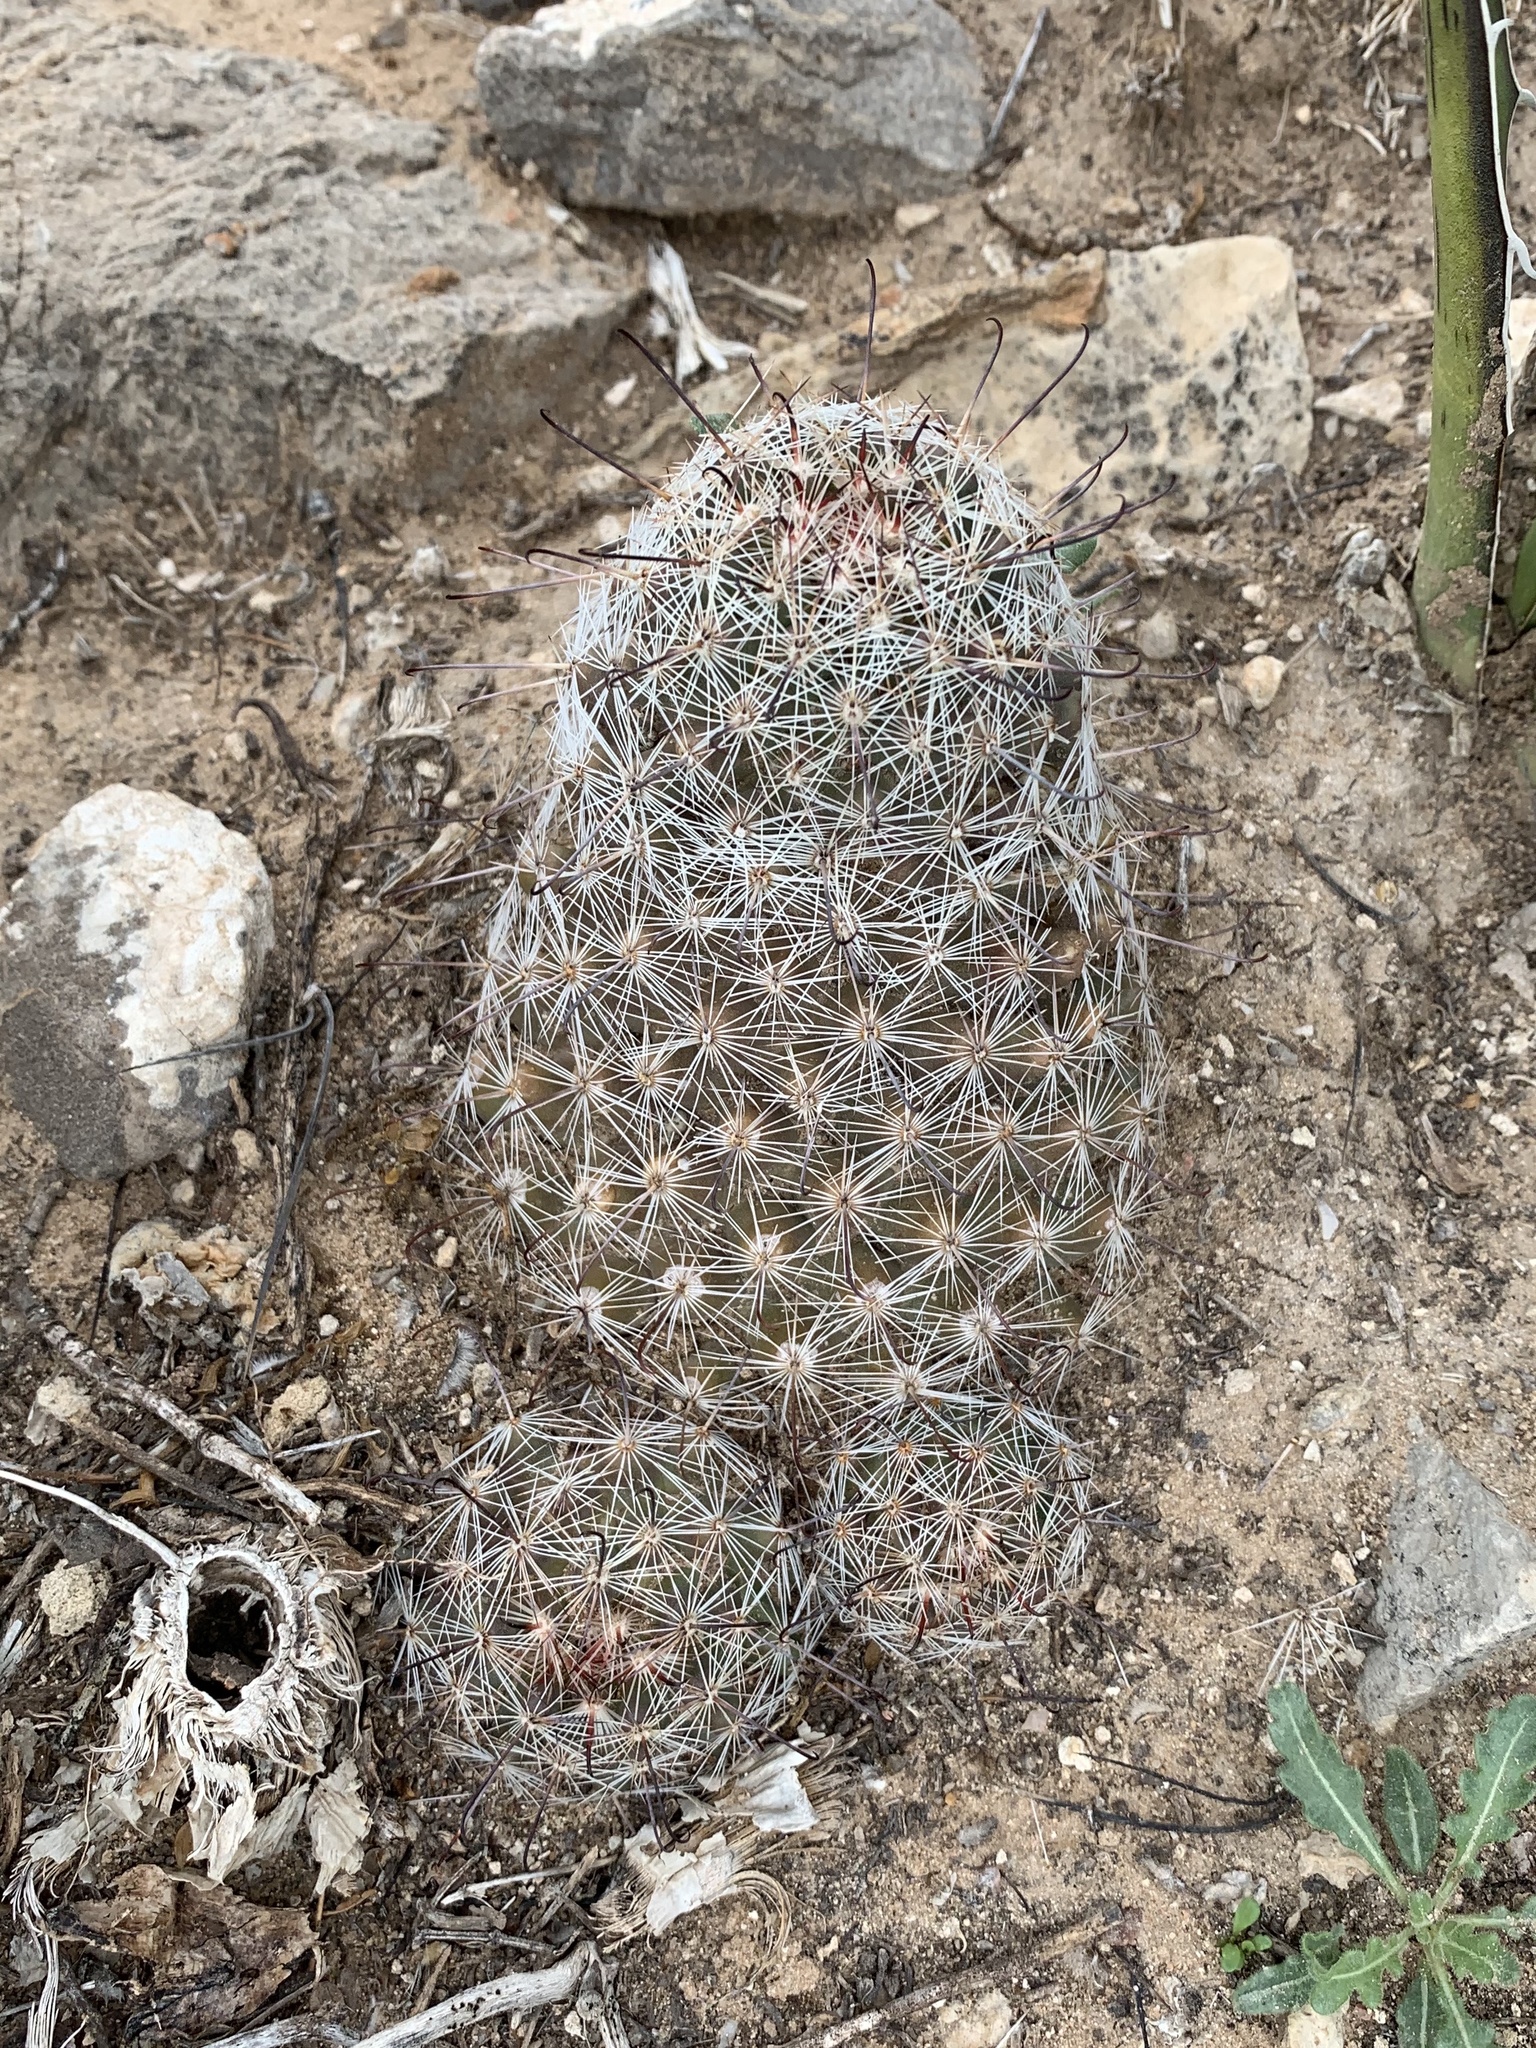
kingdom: Plantae
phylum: Tracheophyta
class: Magnoliopsida
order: Caryophyllales
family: Cactaceae
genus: Cochemiea
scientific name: Cochemiea grahamii
